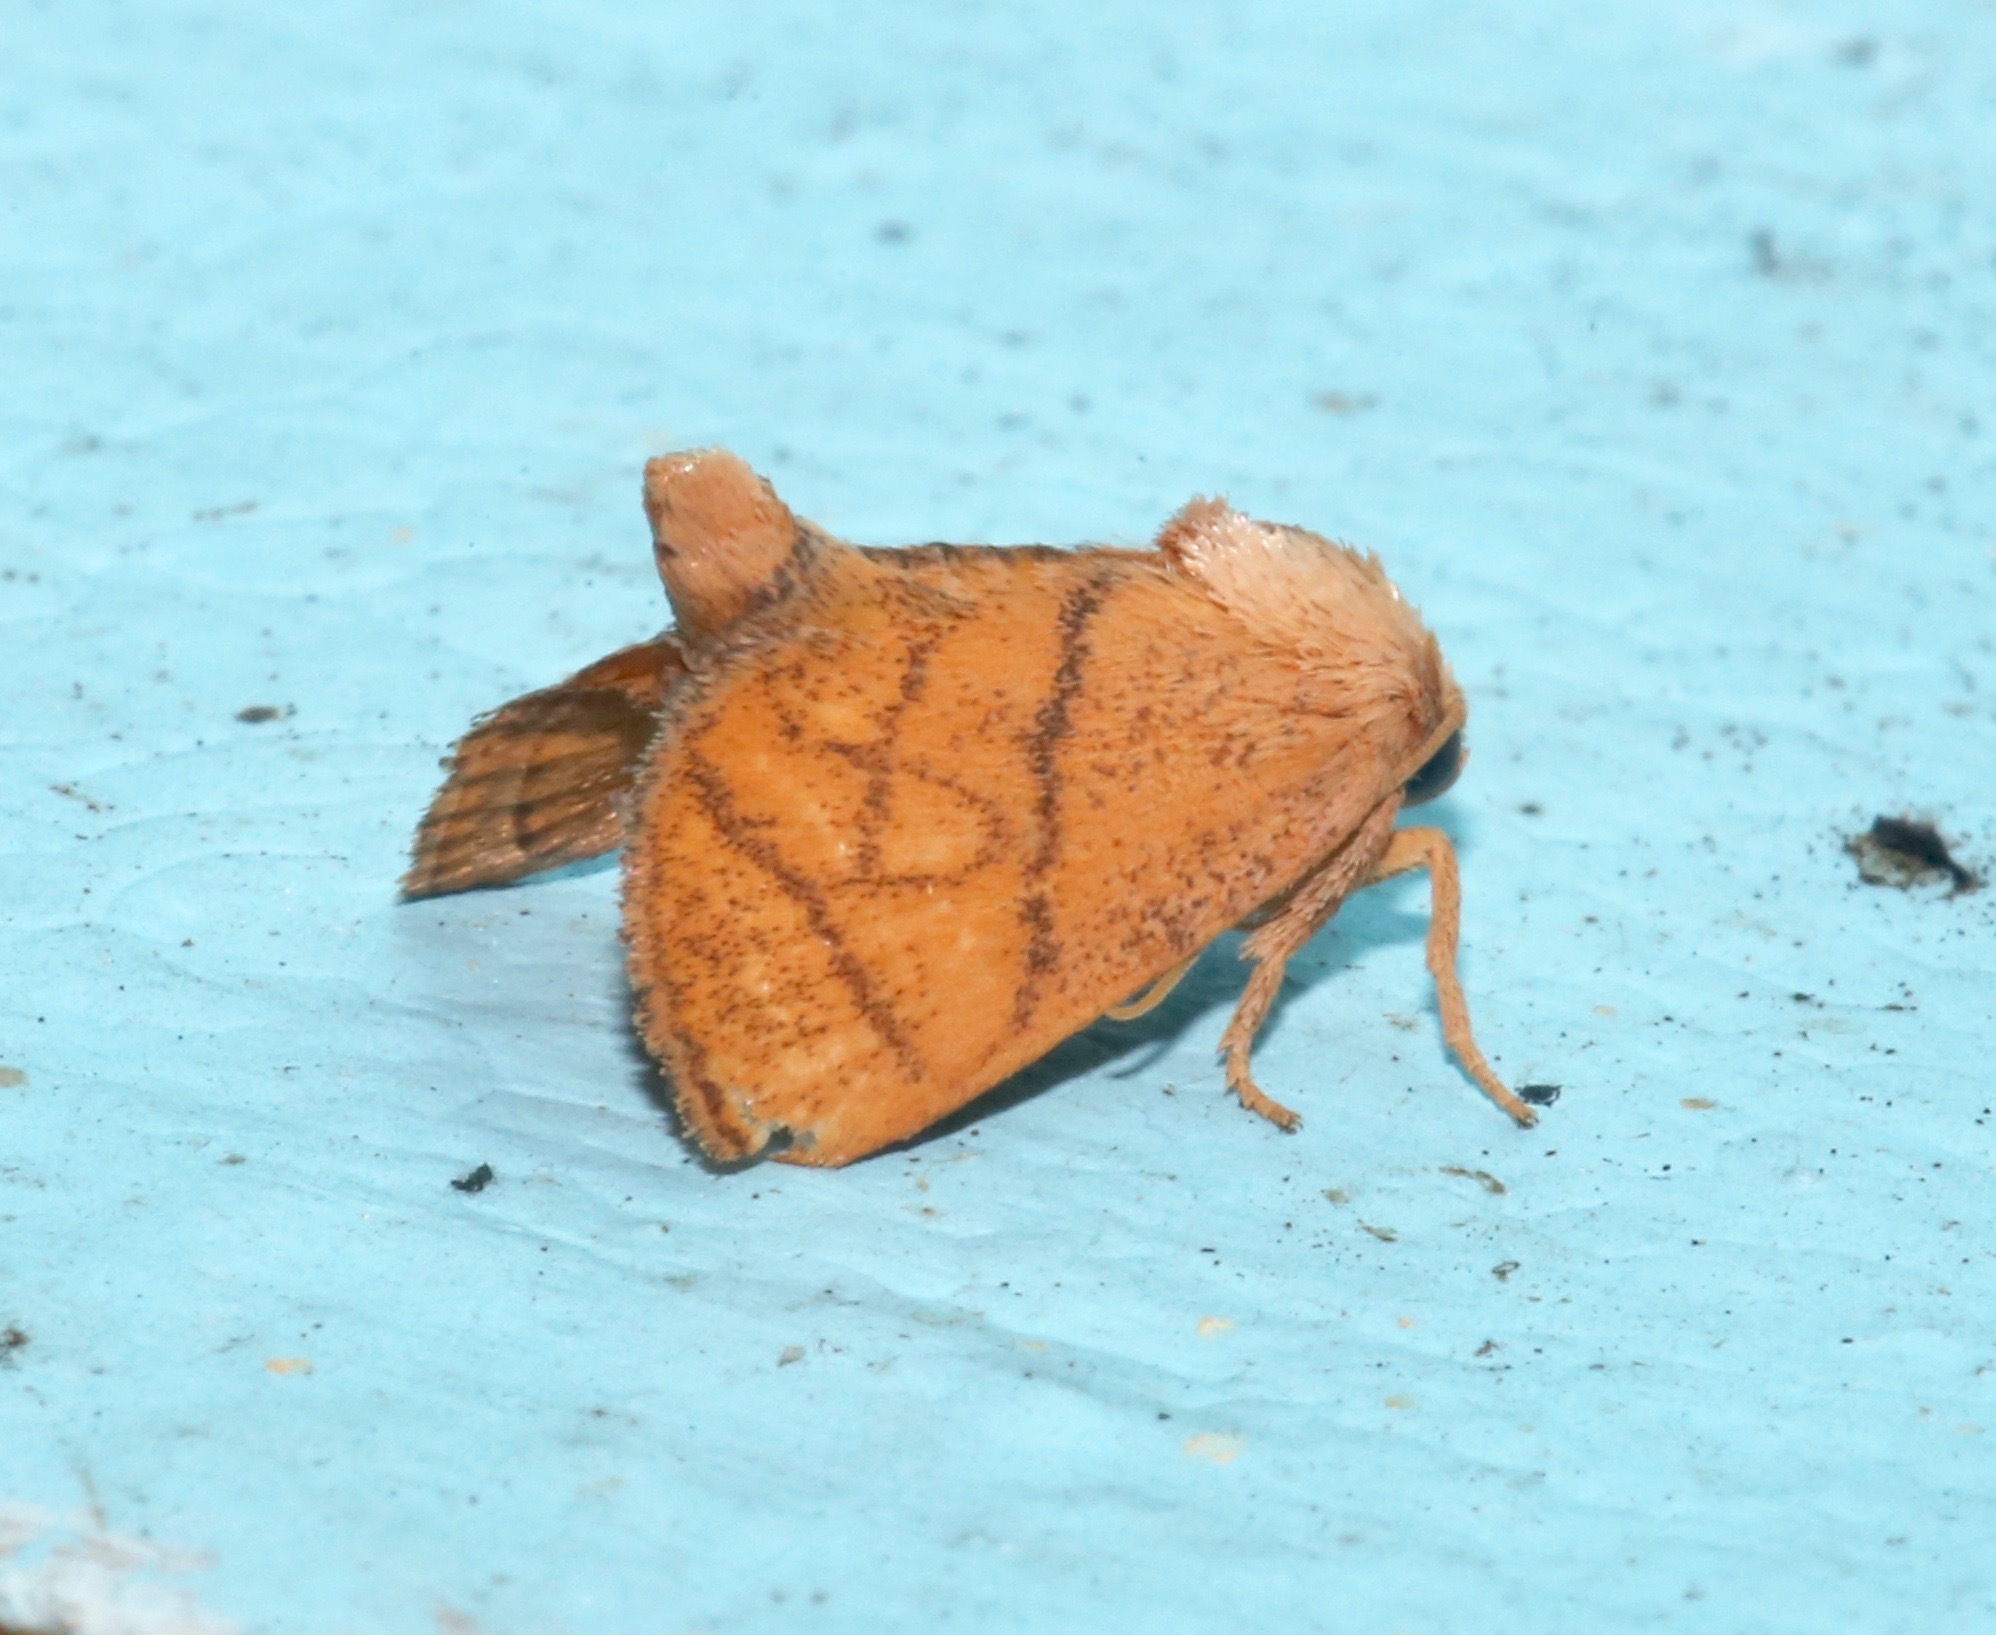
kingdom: Animalia
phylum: Arthropoda
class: Insecta
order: Lepidoptera
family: Limacodidae
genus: Apoda
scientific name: Apoda y-inversa
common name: Yellow-collared slug moth
